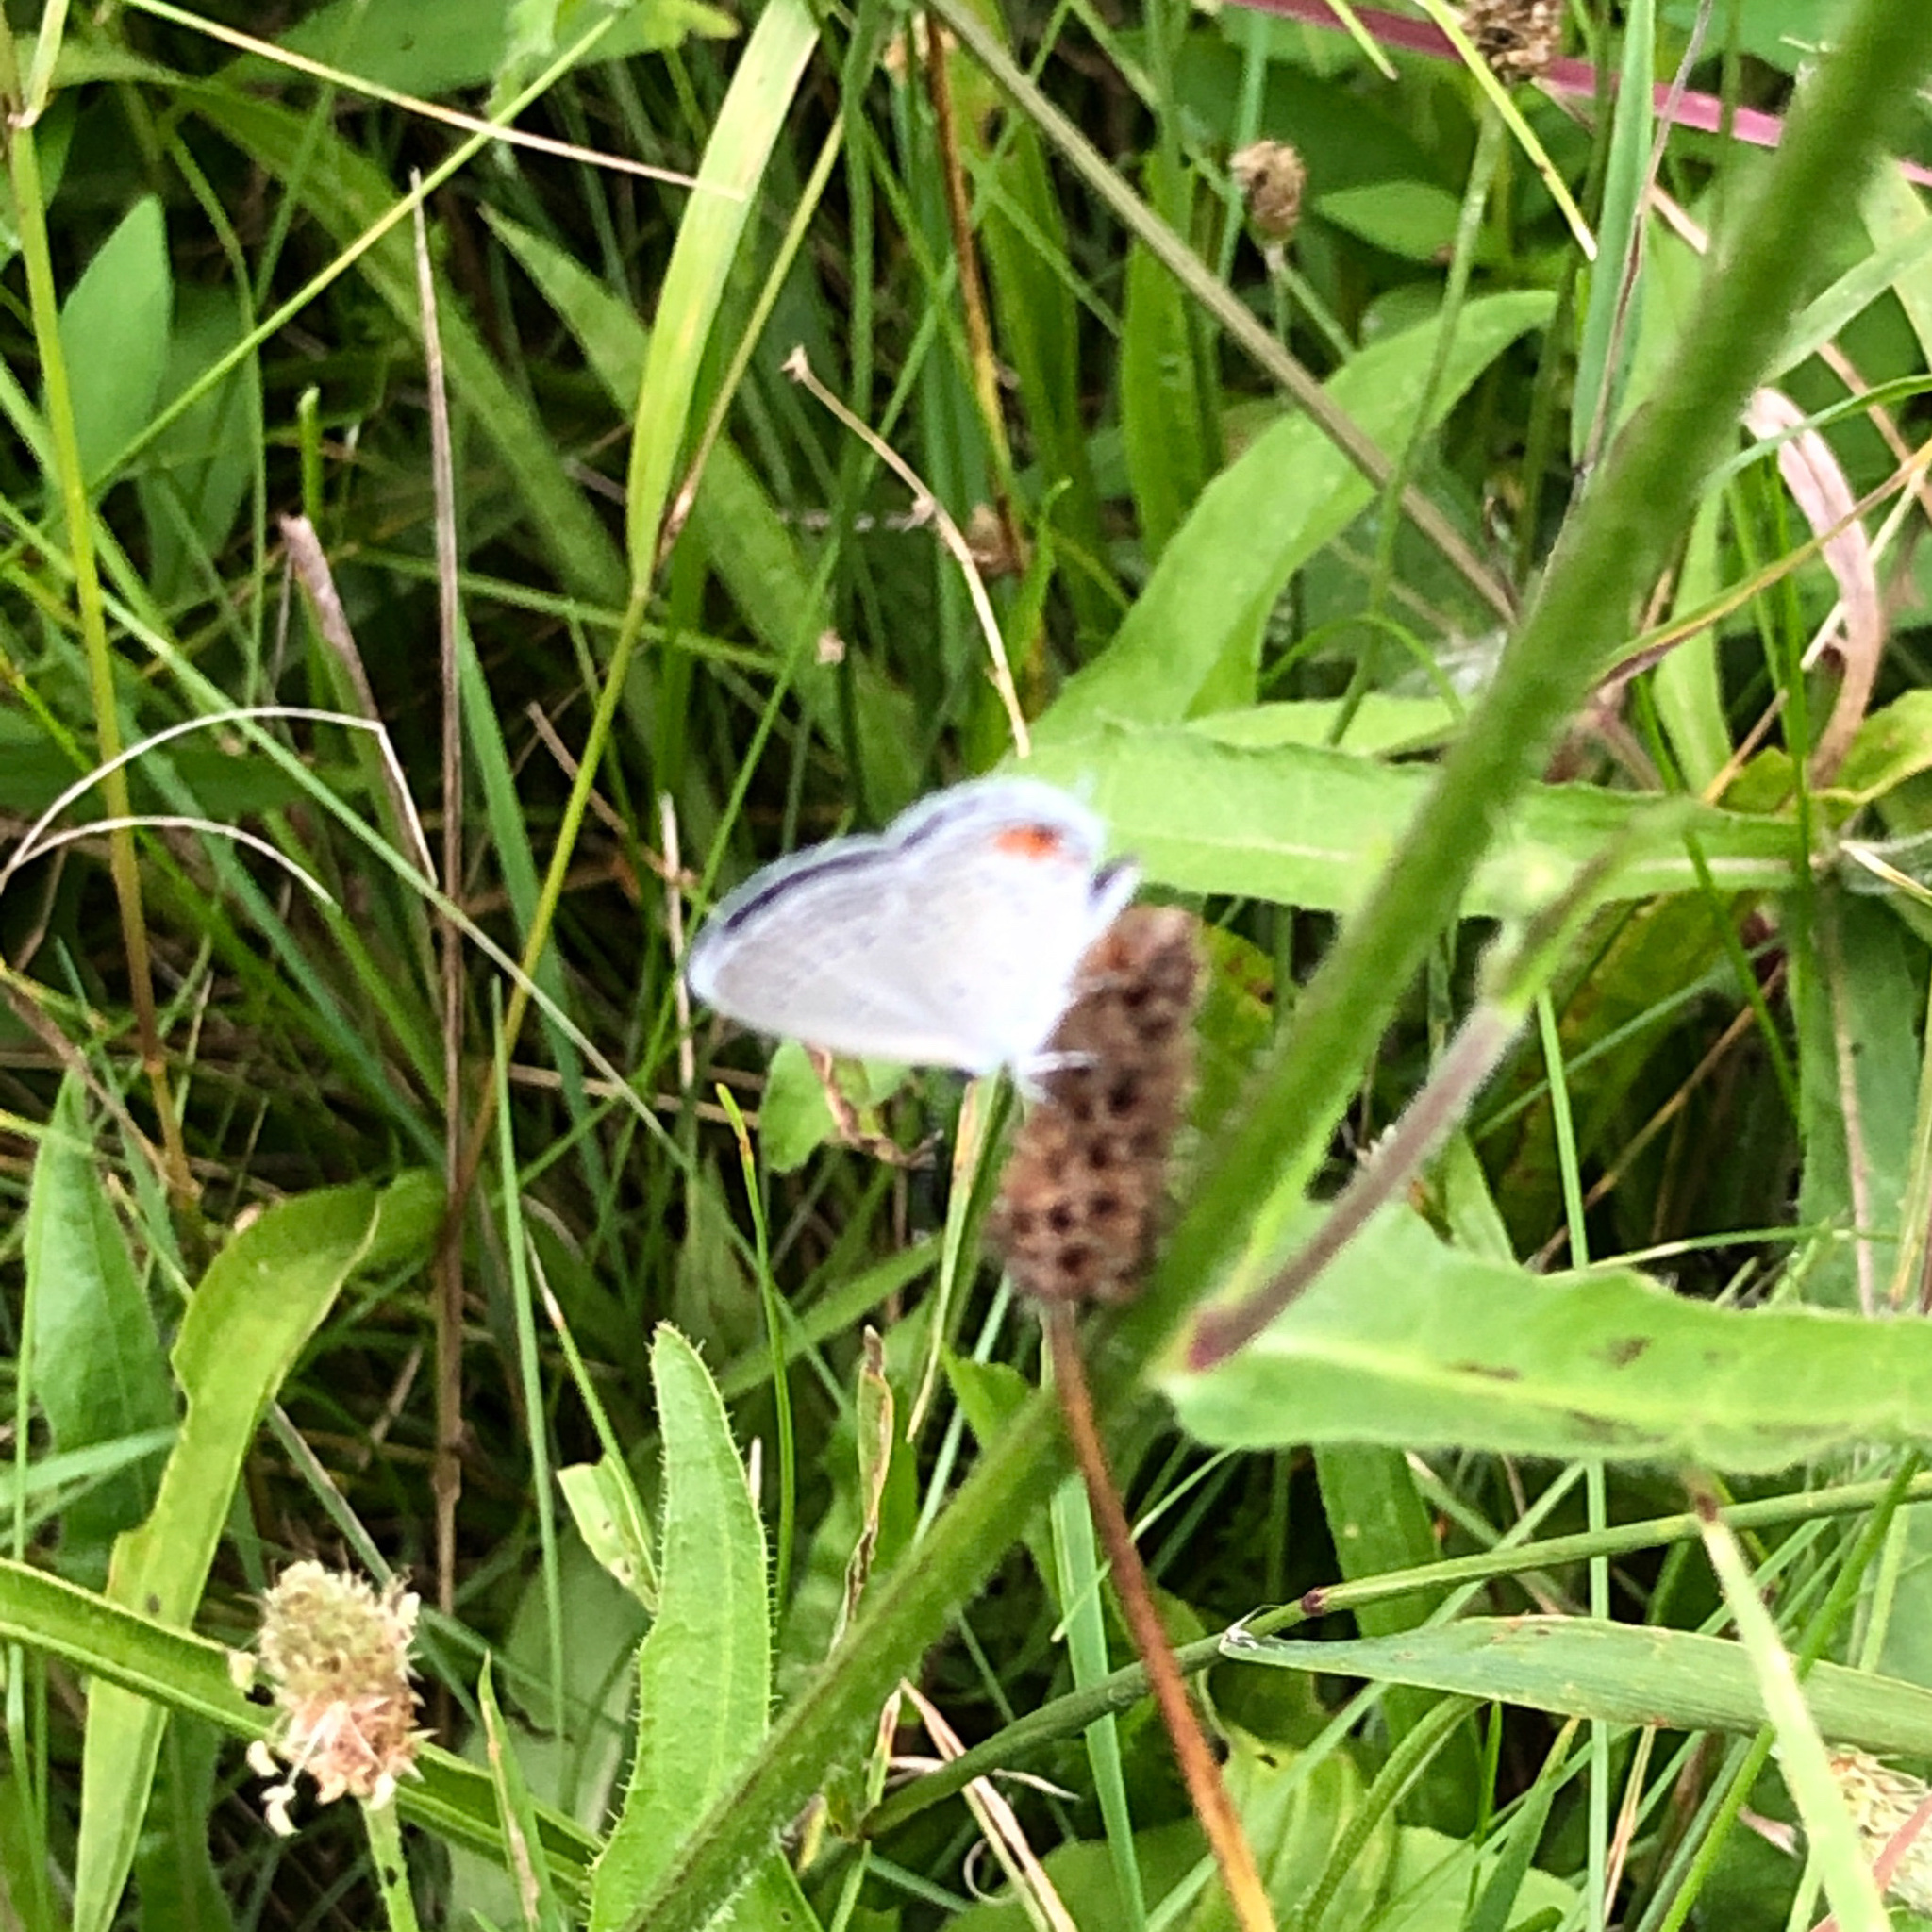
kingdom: Animalia
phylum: Arthropoda
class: Insecta
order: Lepidoptera
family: Lycaenidae
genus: Elkalyce
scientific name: Elkalyce comyntas
